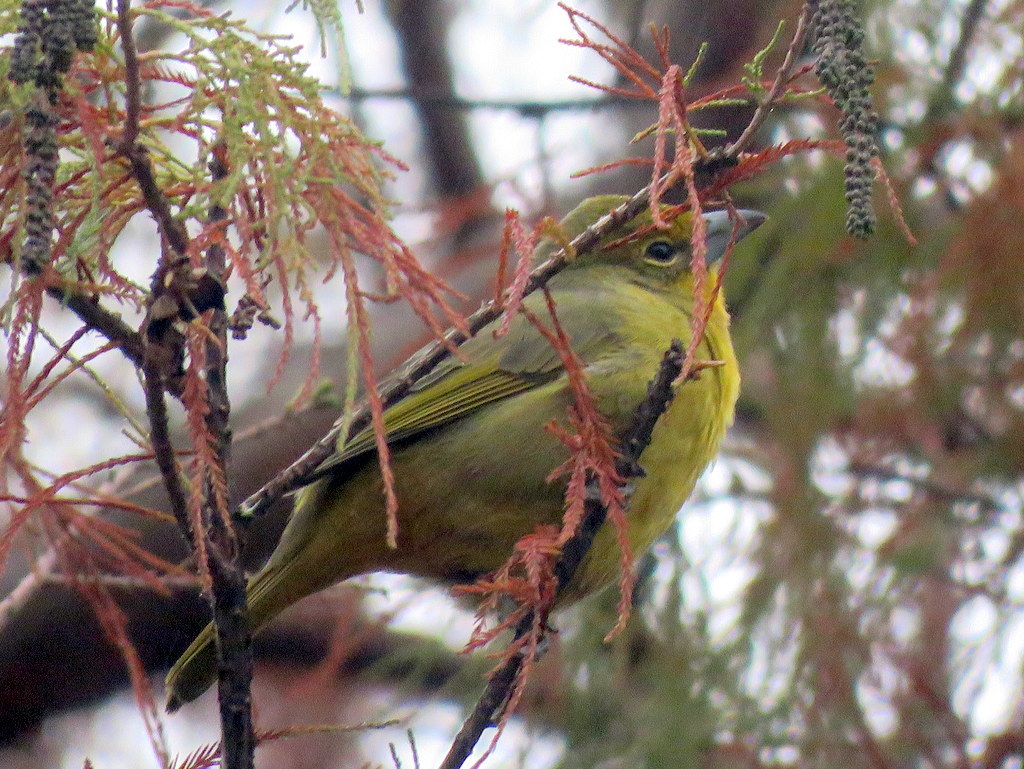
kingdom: Animalia
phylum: Chordata
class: Aves
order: Passeriformes
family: Cardinalidae
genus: Piranga
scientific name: Piranga flava
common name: Red tanager
